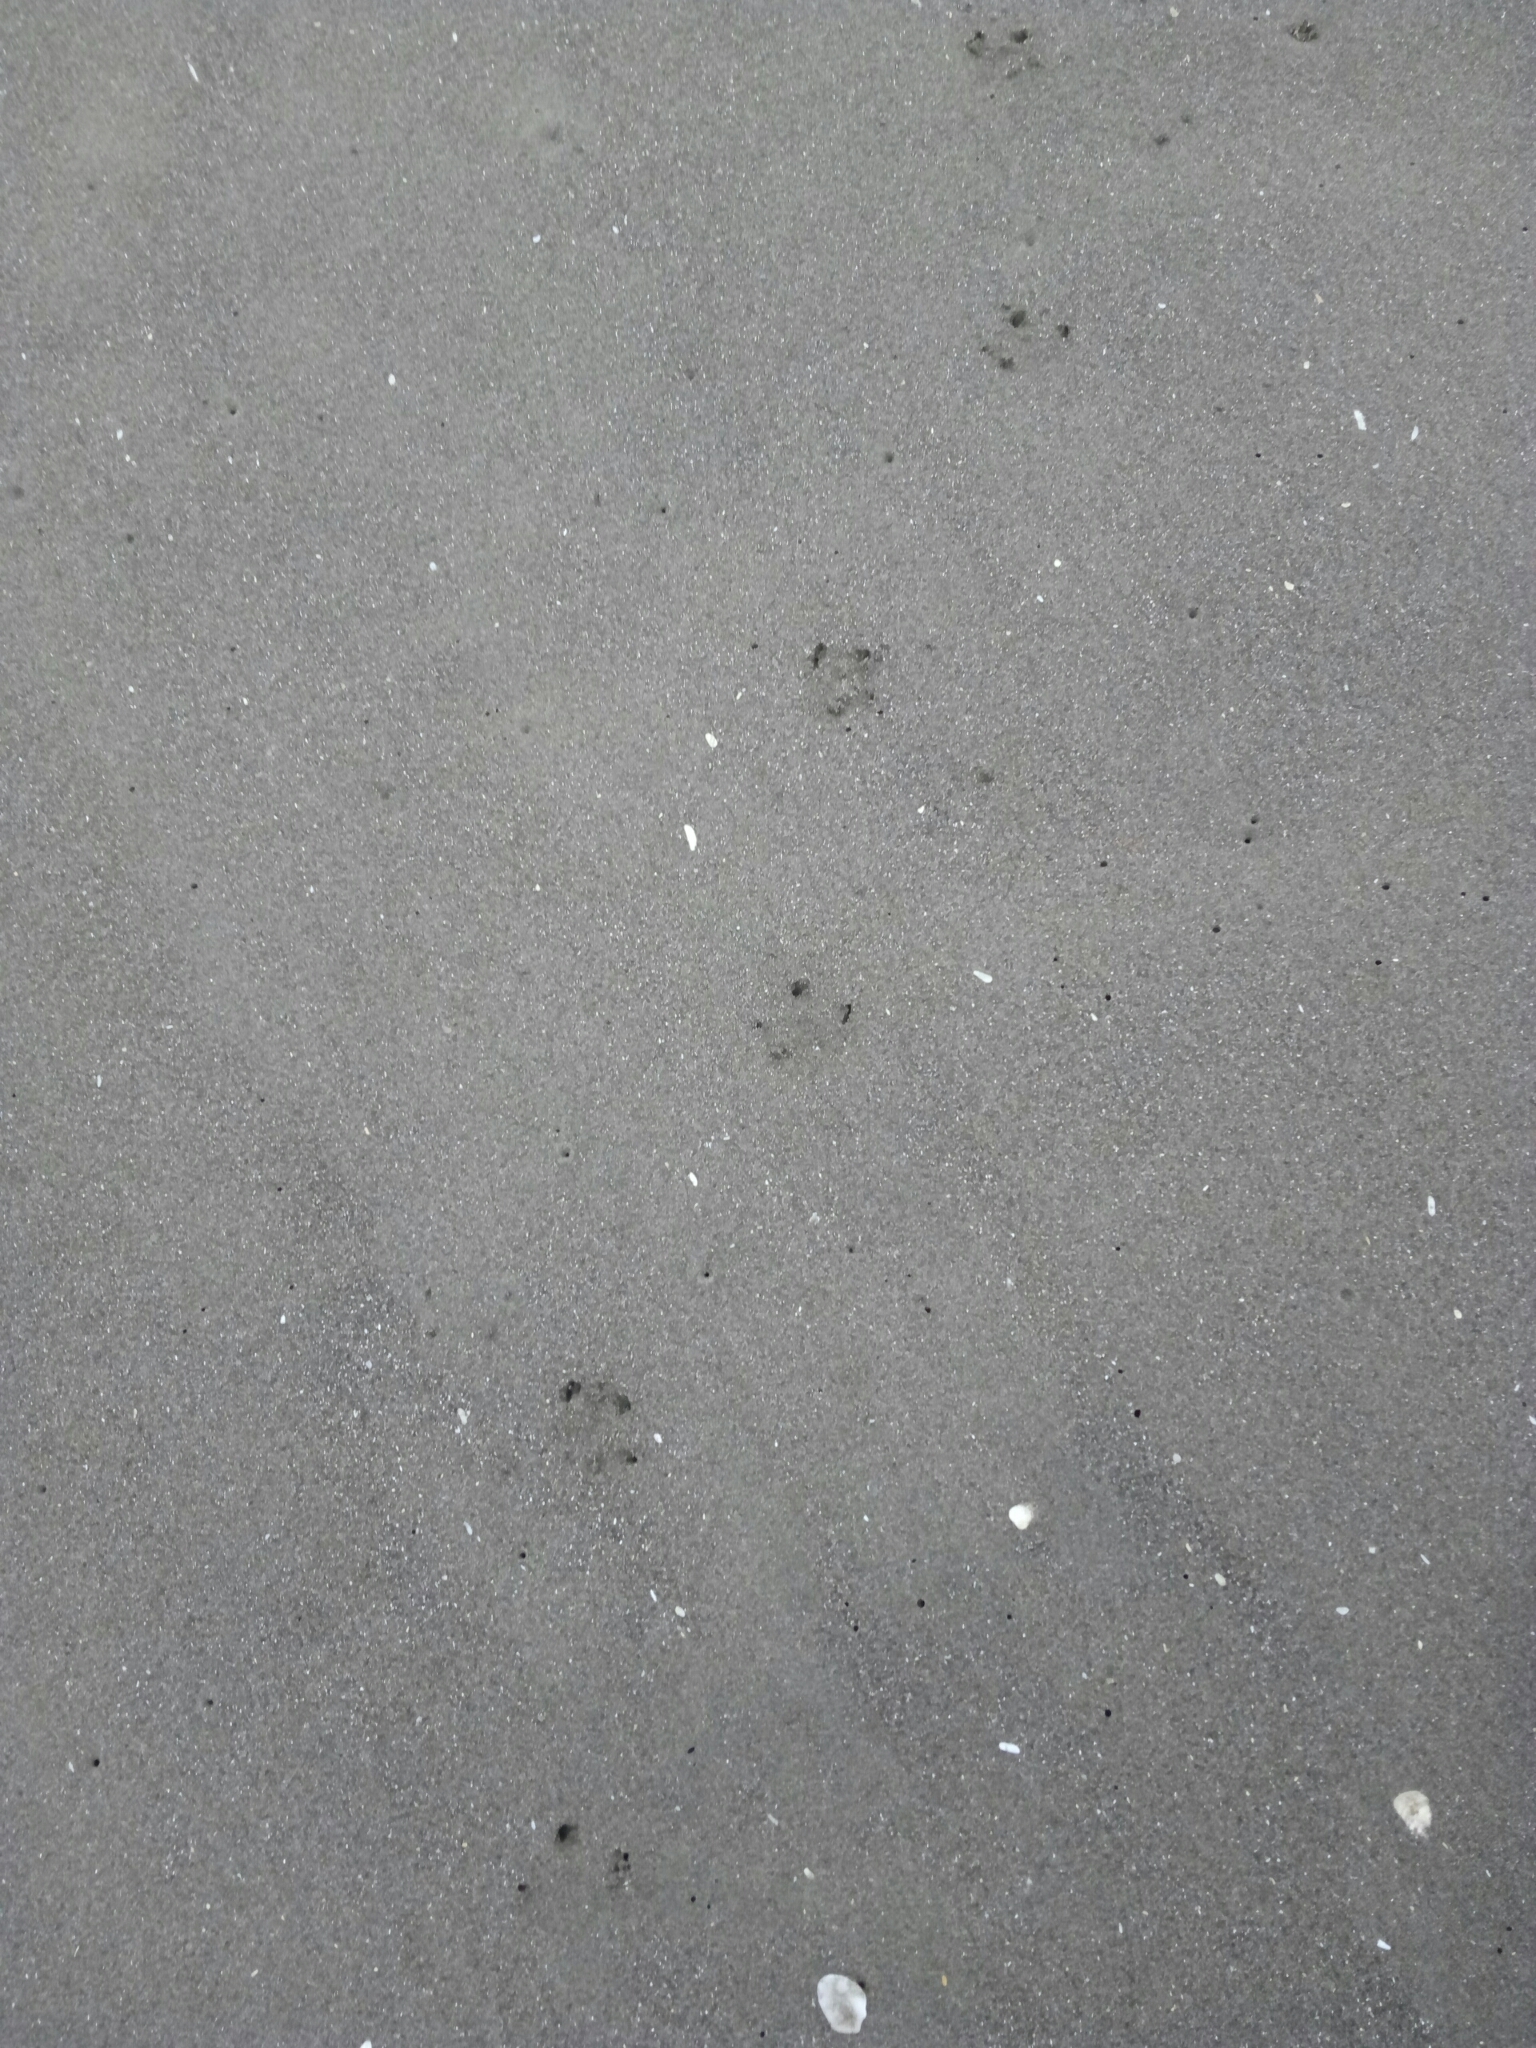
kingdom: Animalia
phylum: Chordata
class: Aves
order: Sphenisciformes
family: Spheniscidae
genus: Eudyptula
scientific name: Eudyptula minor
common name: Little penguin
